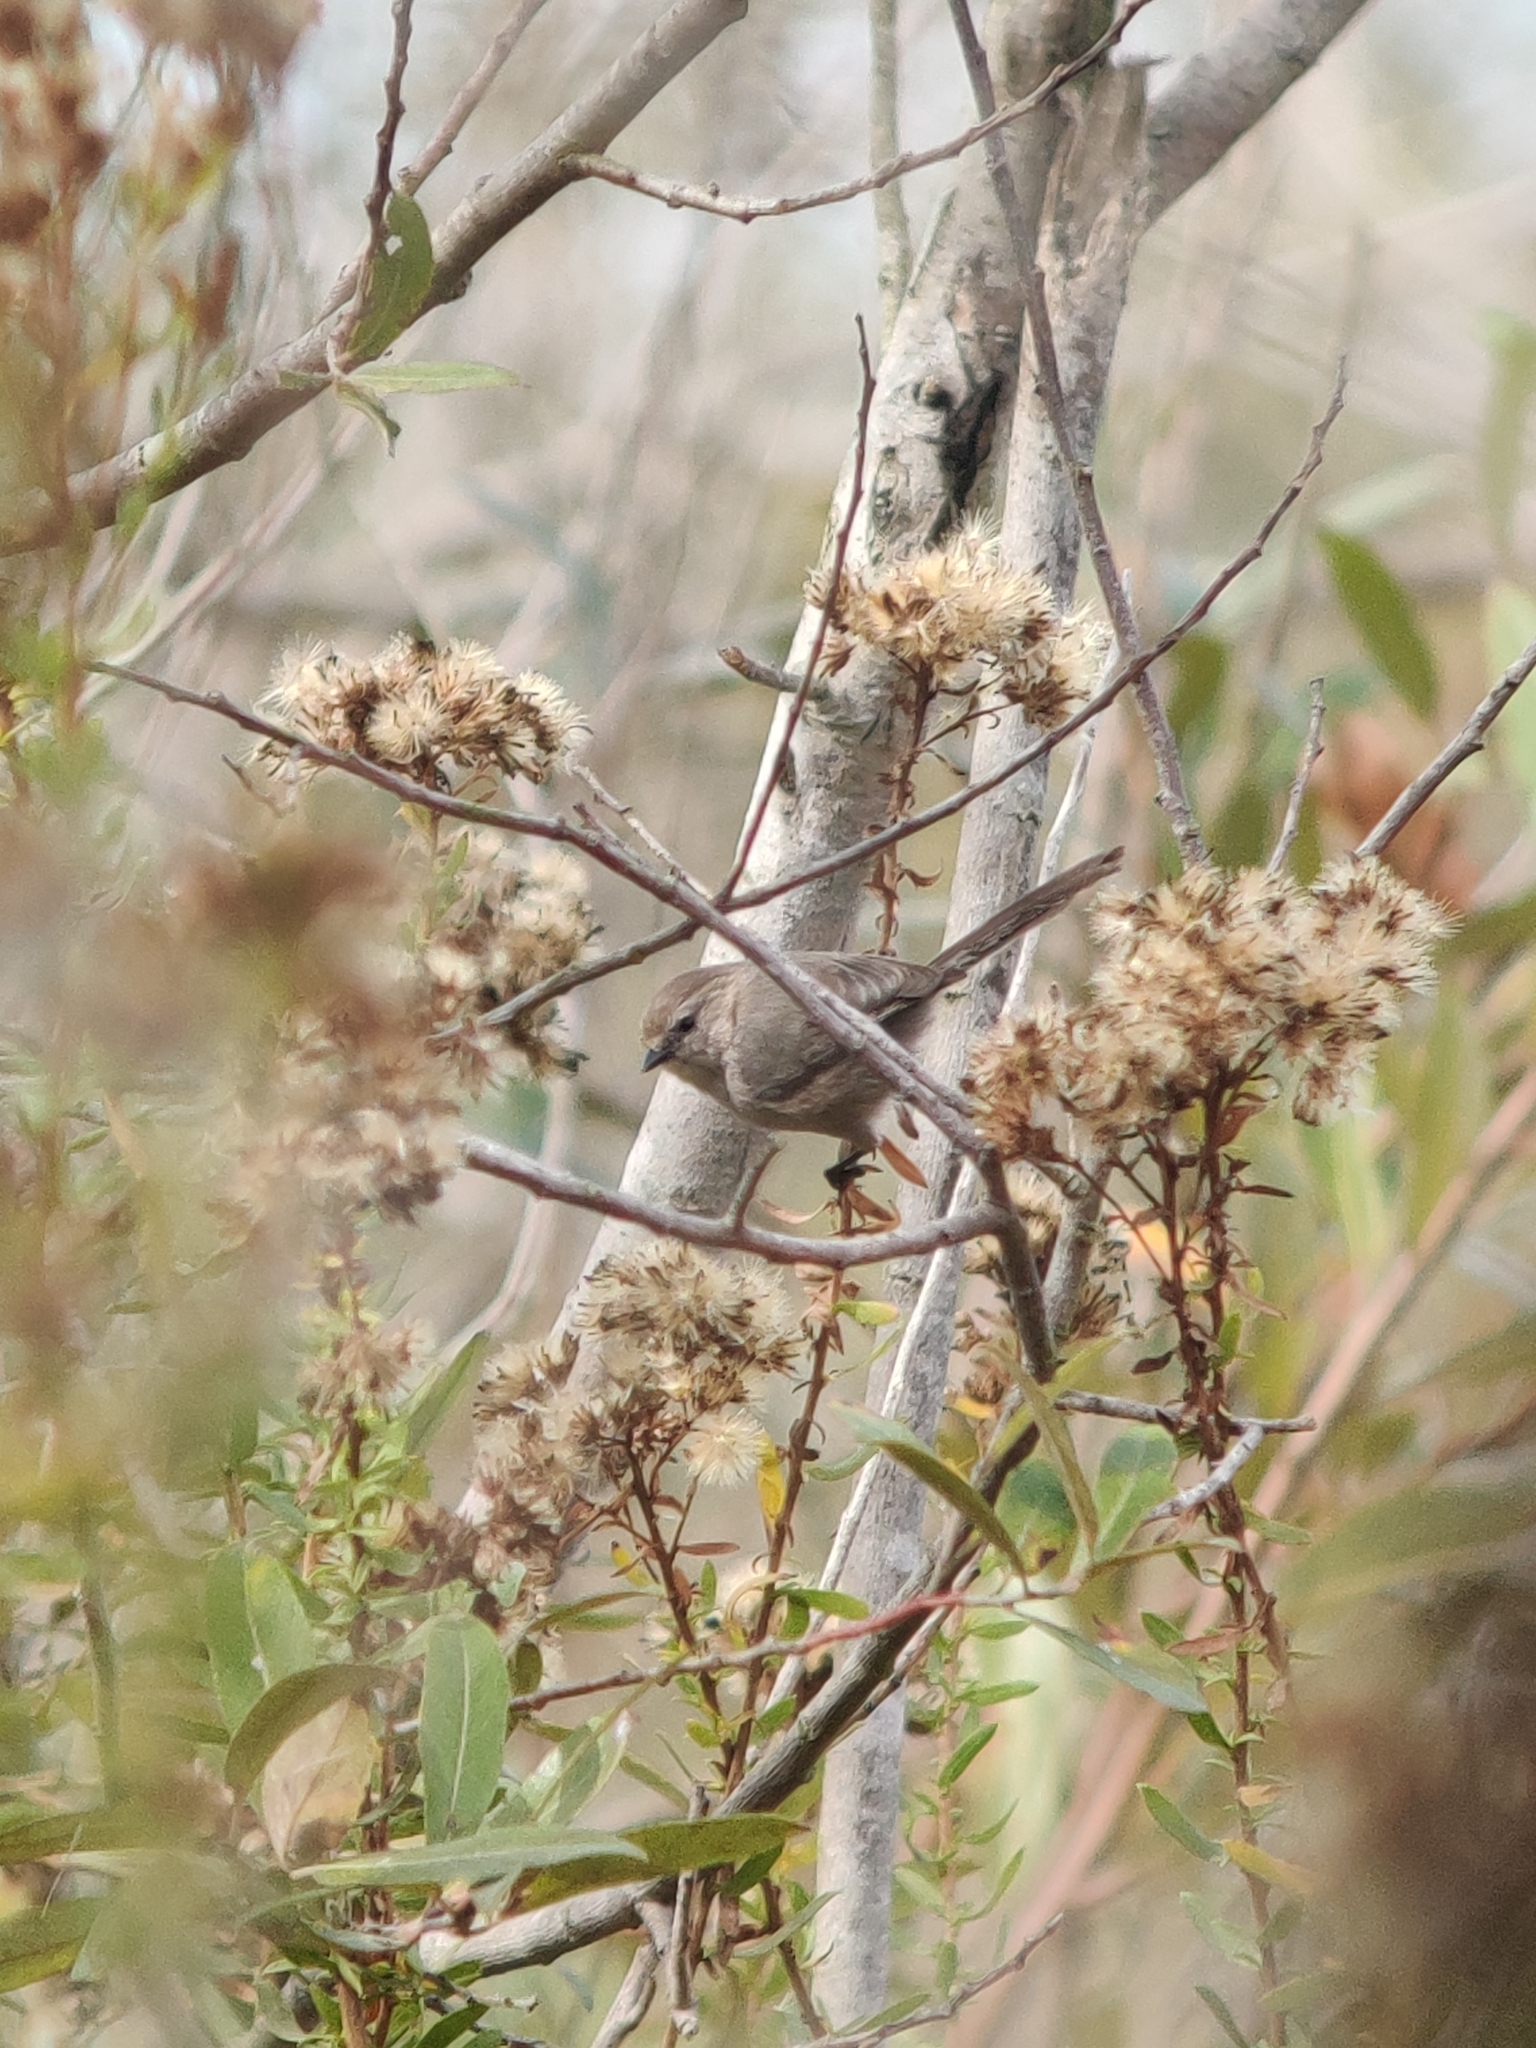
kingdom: Animalia
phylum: Chordata
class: Aves
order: Passeriformes
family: Aegithalidae
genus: Psaltriparus
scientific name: Psaltriparus minimus
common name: American bushtit
